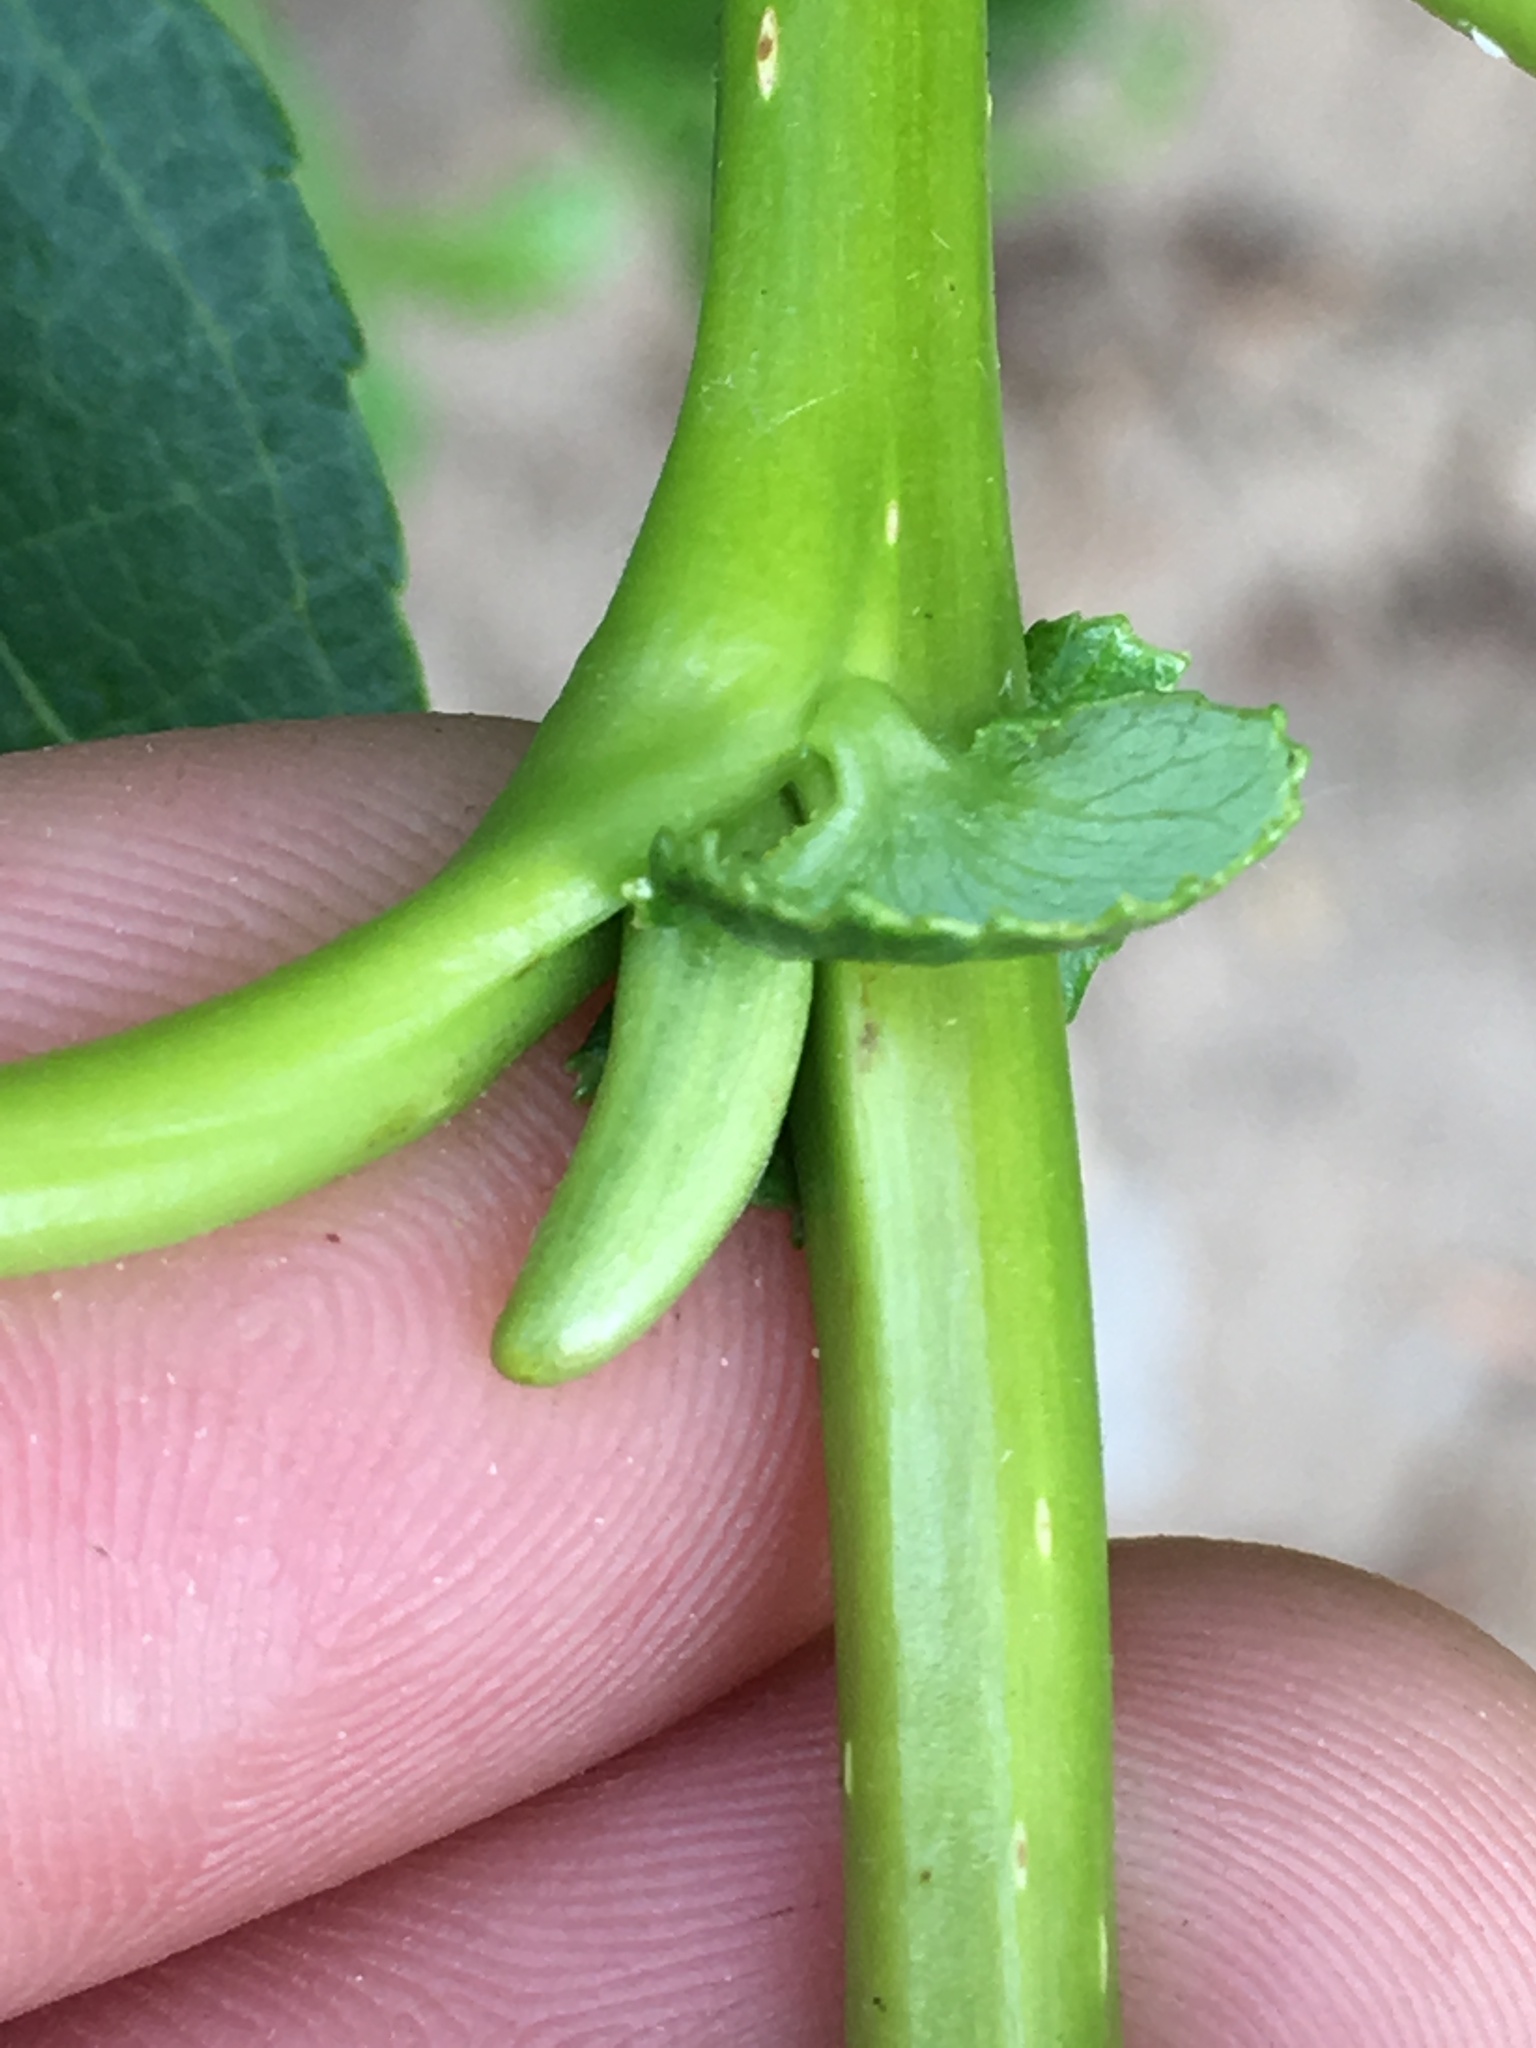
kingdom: Plantae
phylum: Tracheophyta
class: Magnoliopsida
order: Malpighiales
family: Salicaceae
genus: Salix
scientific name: Salix lucida
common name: Shining willow
